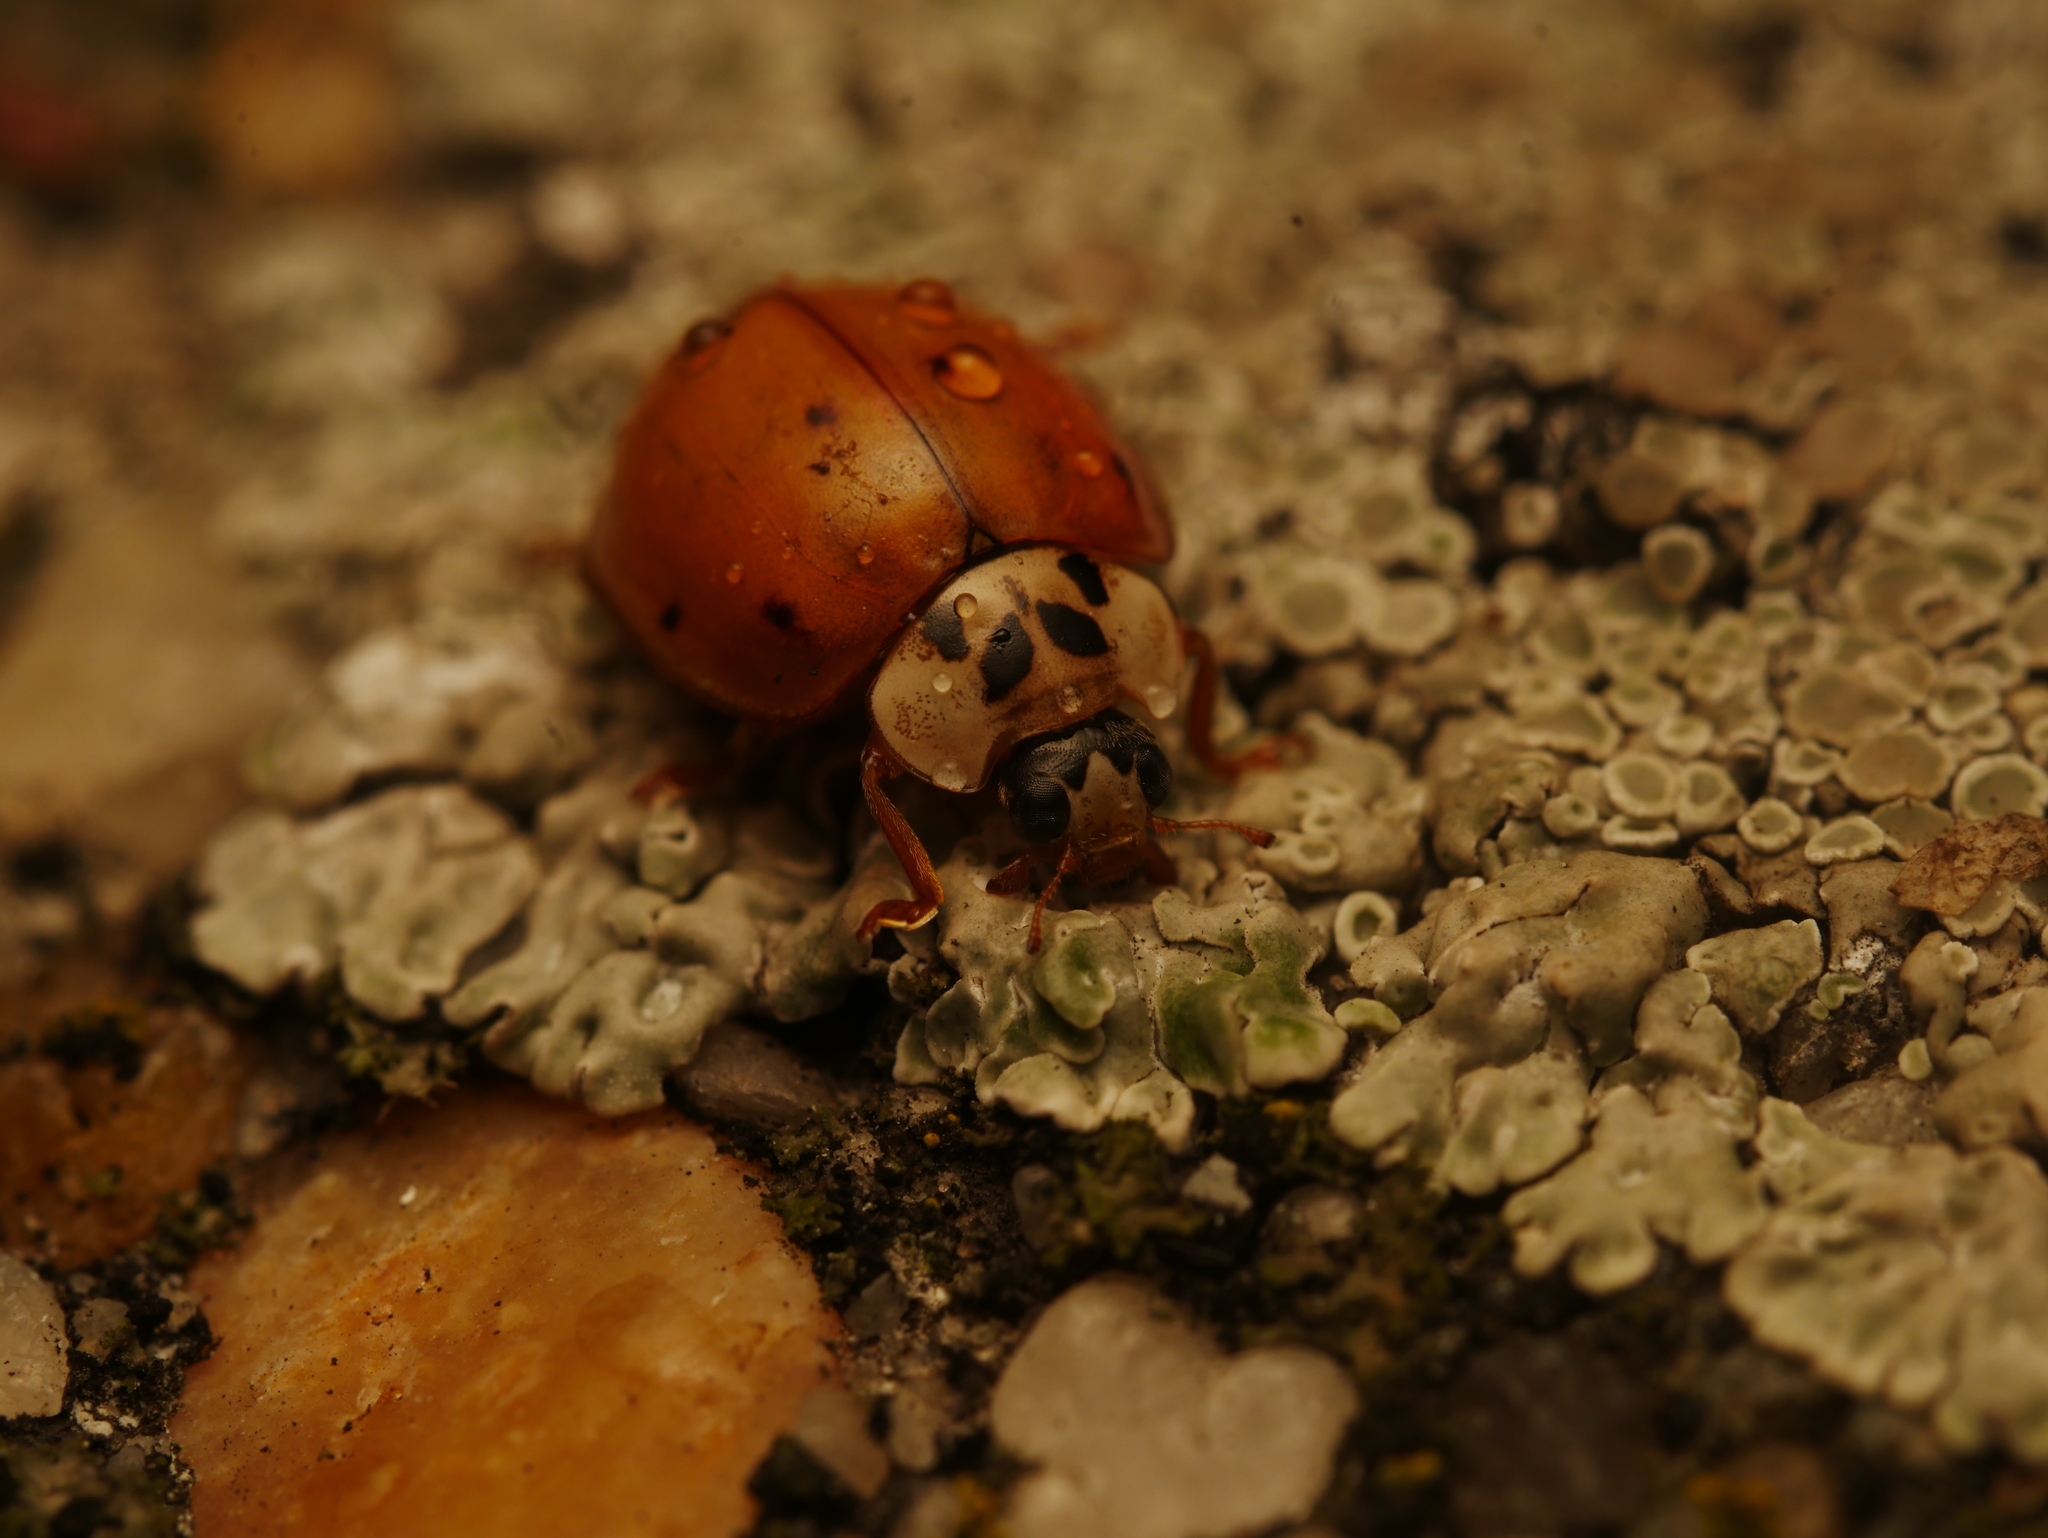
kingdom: Animalia
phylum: Arthropoda
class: Insecta
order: Coleoptera
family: Coccinellidae
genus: Harmonia
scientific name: Harmonia axyridis
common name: Harlequin ladybird
